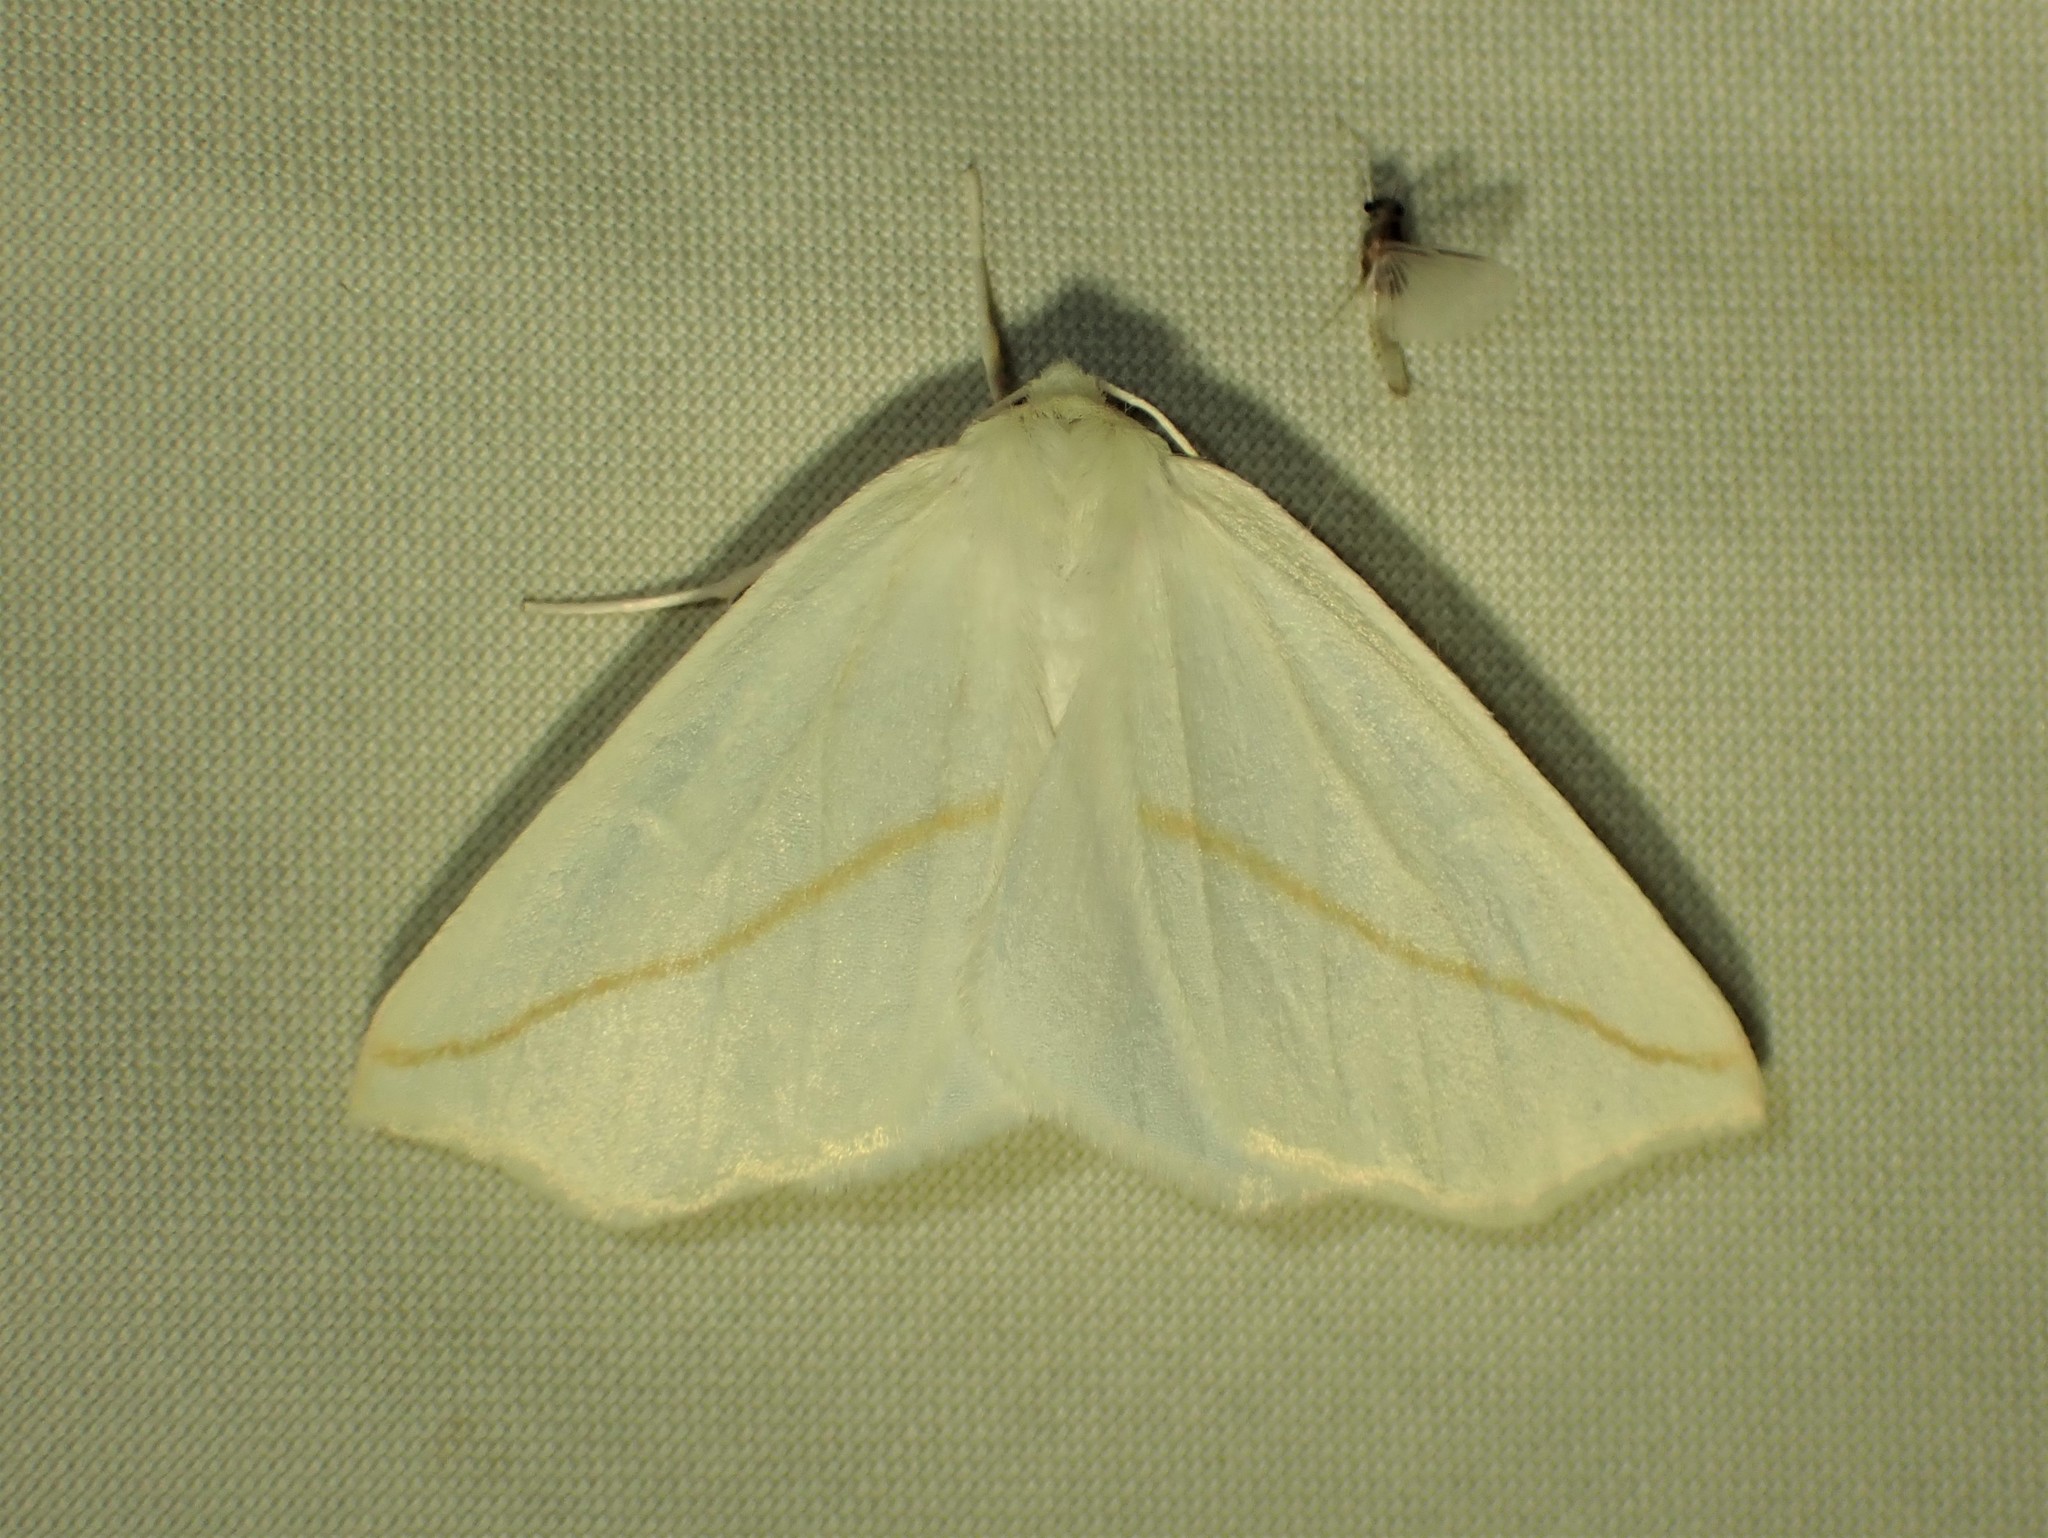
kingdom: Animalia
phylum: Arthropoda
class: Insecta
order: Lepidoptera
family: Geometridae
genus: Tetracis
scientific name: Tetracis cachexiata
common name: White slant-line
